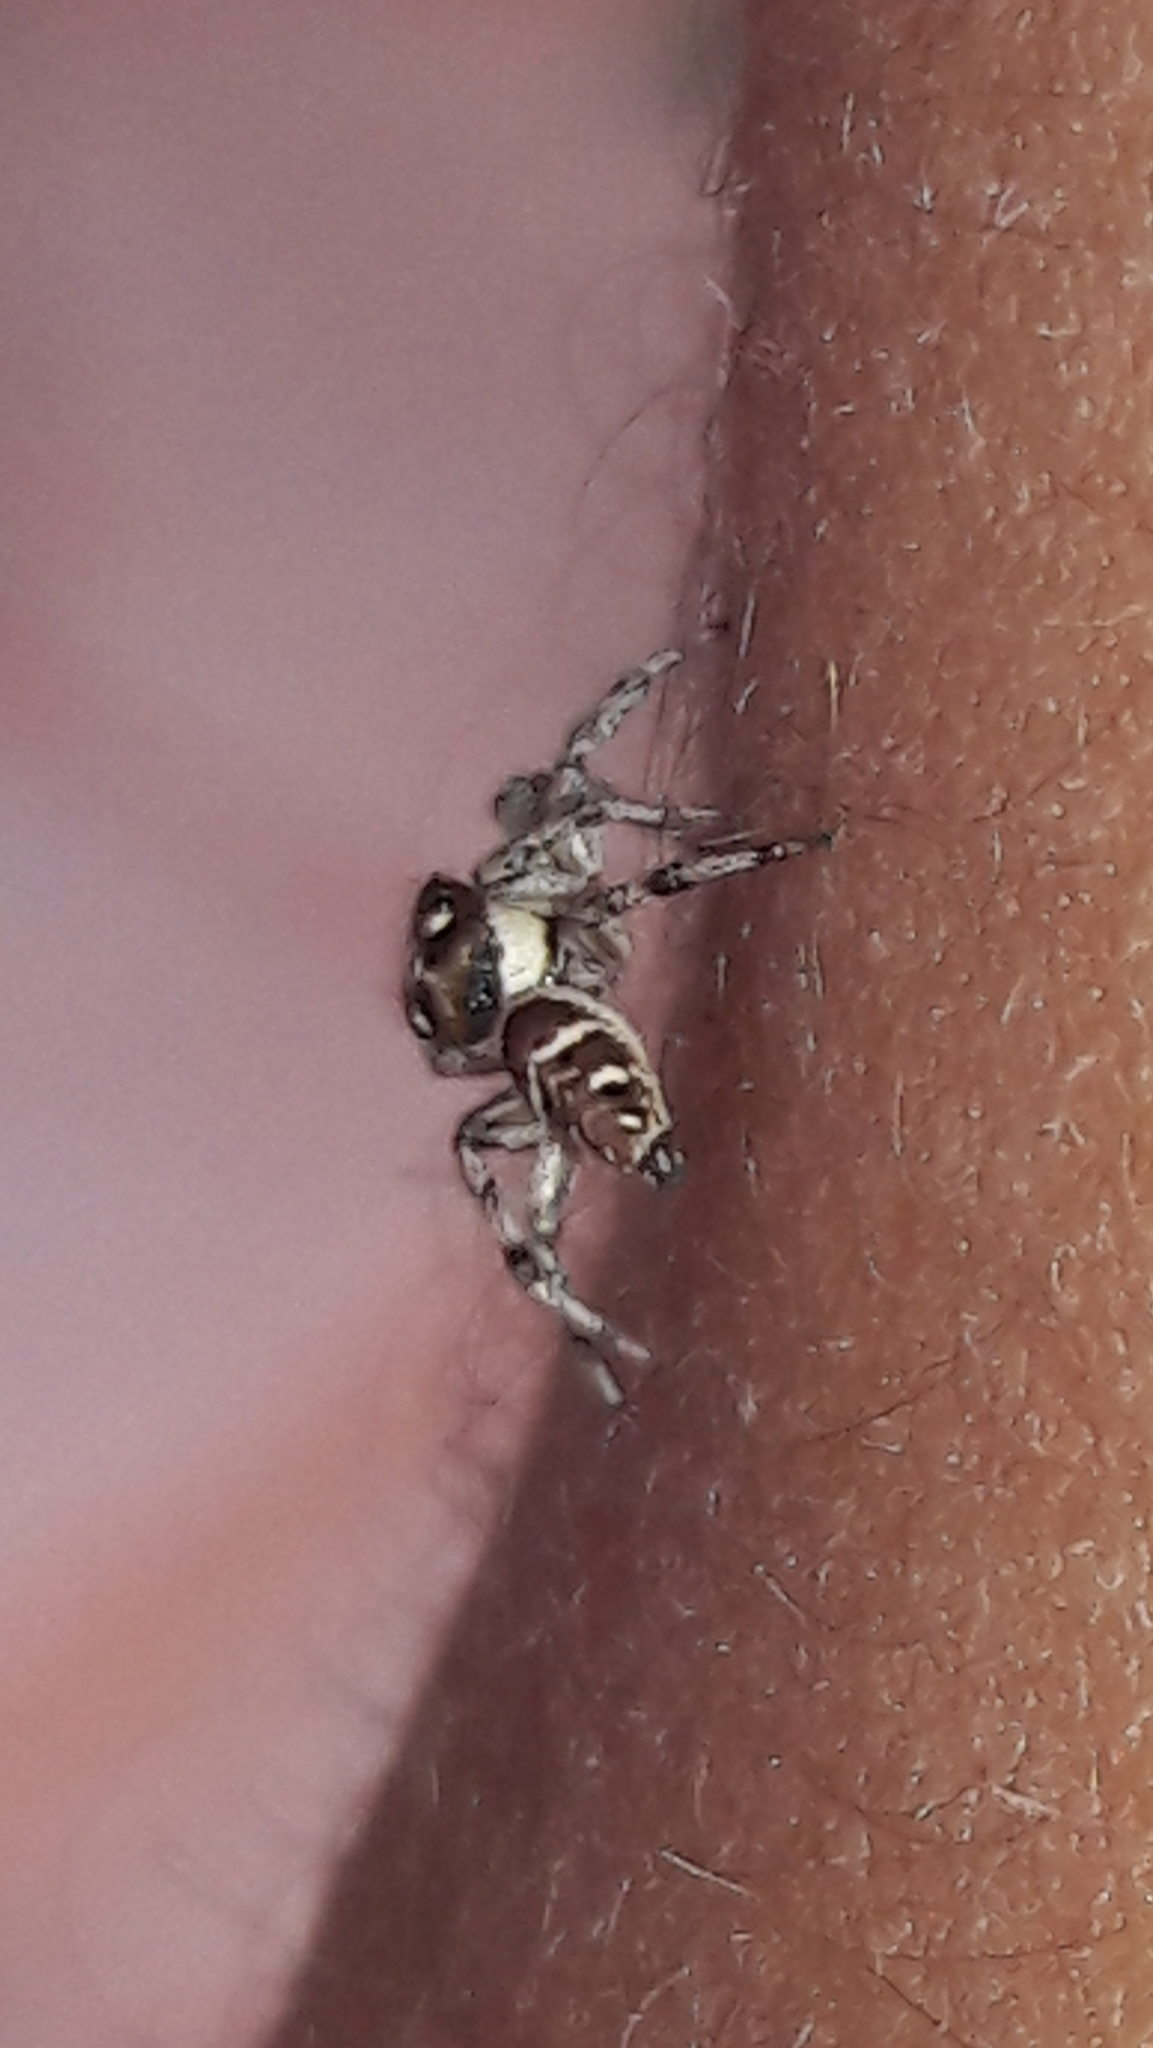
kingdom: Animalia
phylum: Arthropoda
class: Arachnida
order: Araneae
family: Salticidae
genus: Philira
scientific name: Philira micans
